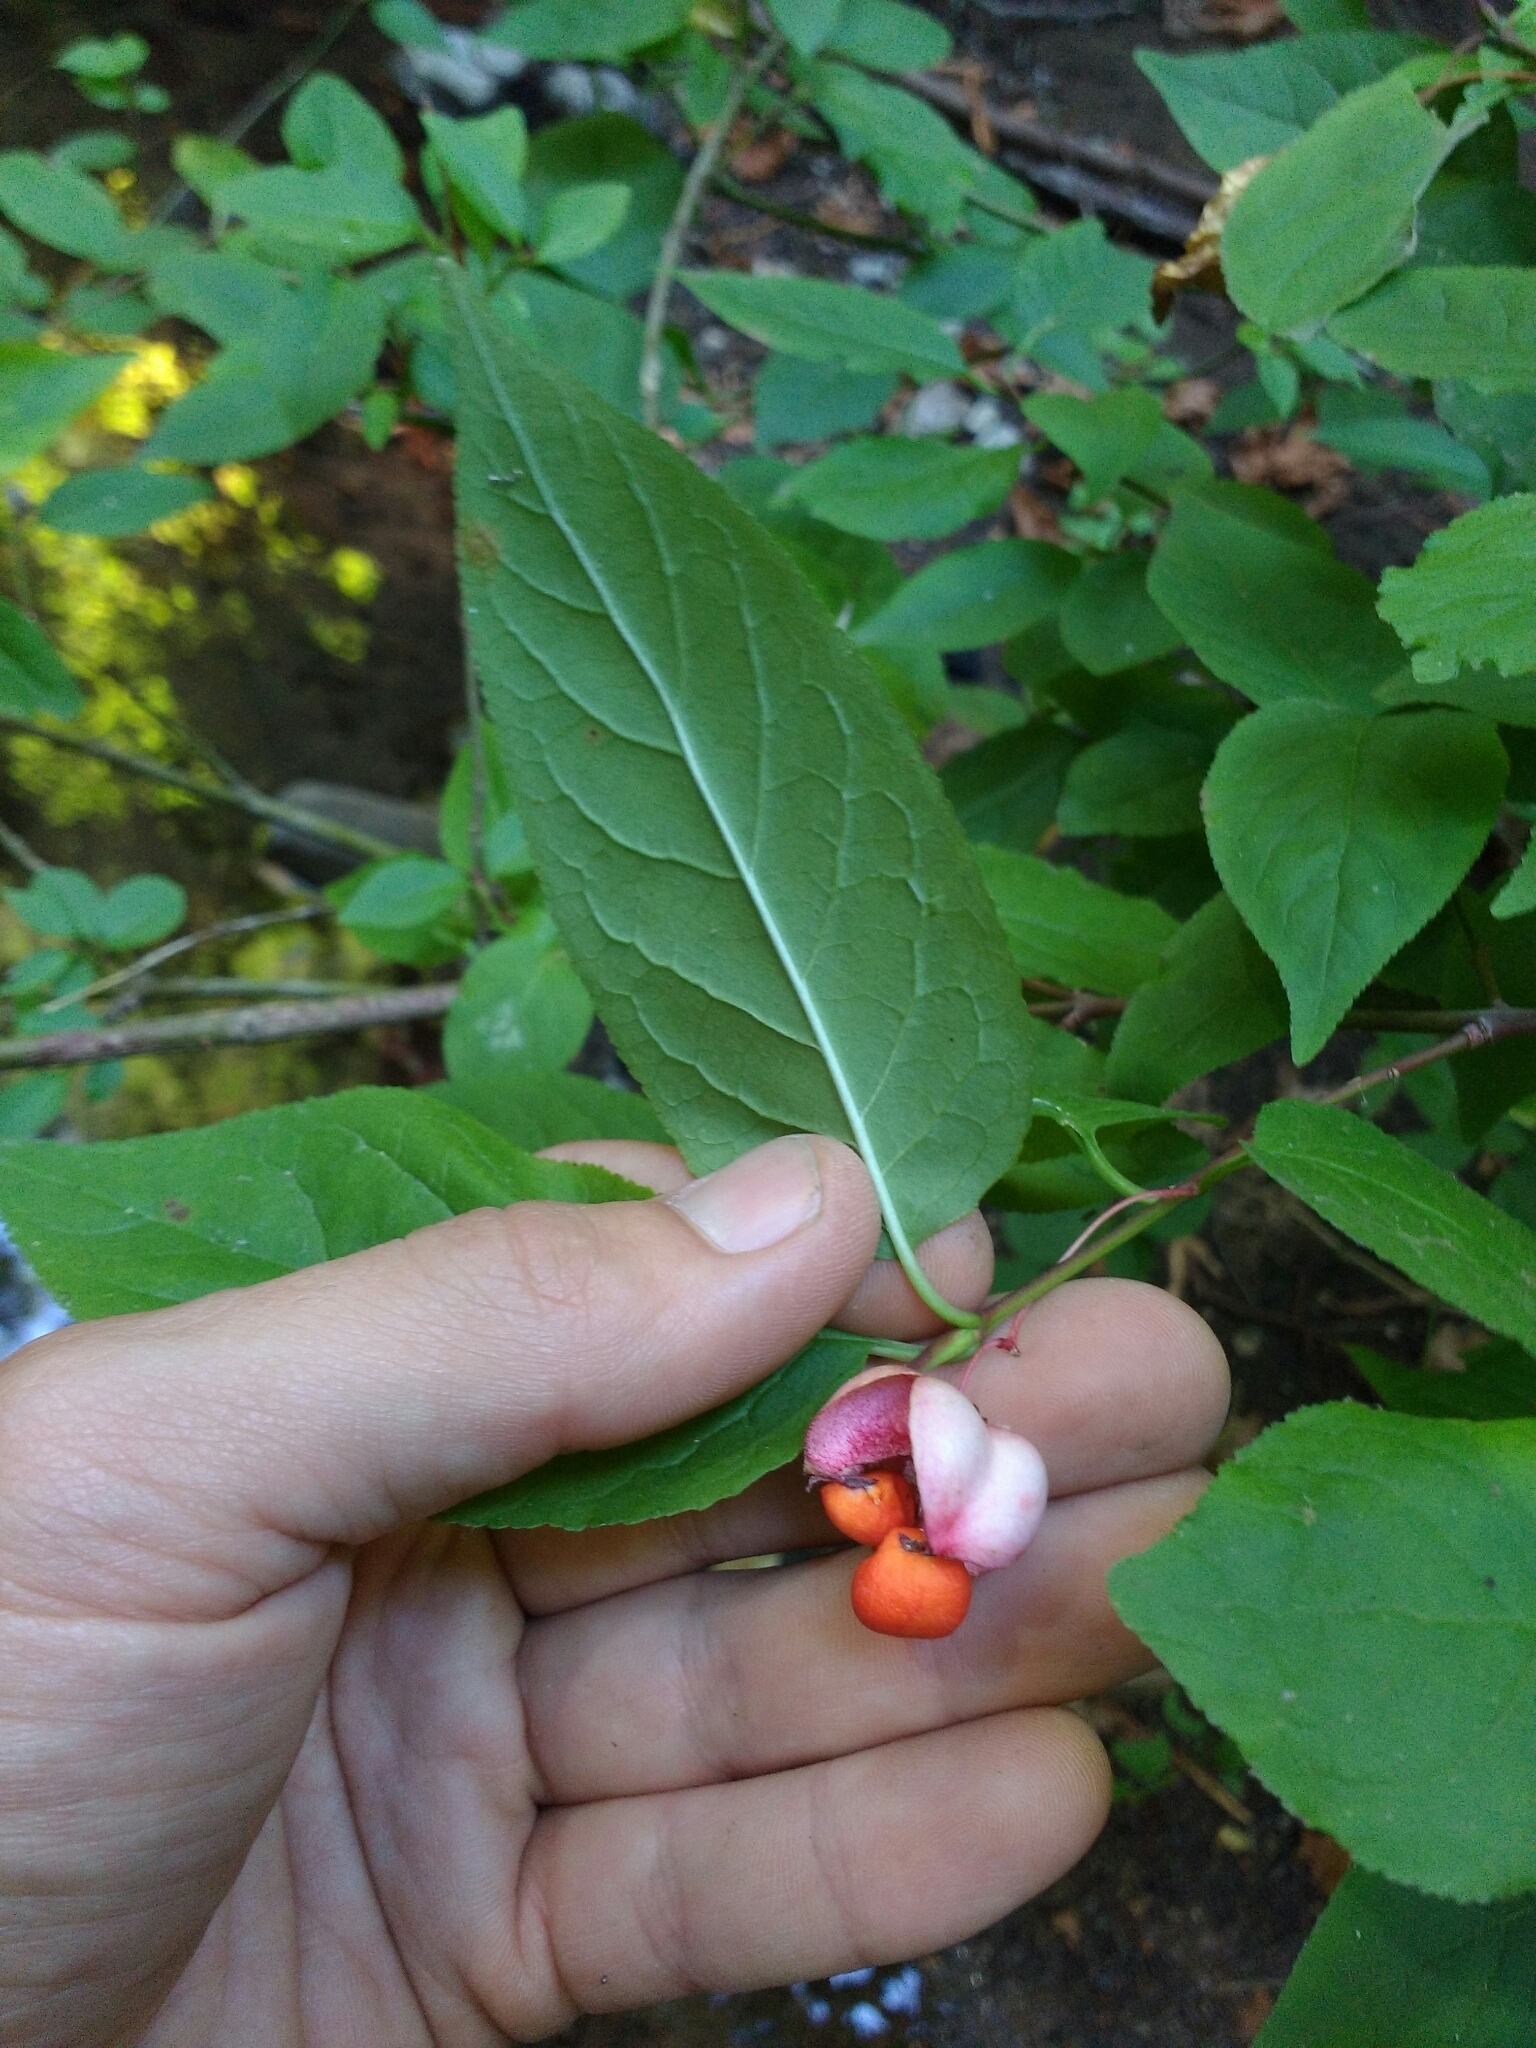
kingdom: Plantae
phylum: Tracheophyta
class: Magnoliopsida
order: Celastrales
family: Celastraceae
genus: Euonymus
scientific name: Euonymus occidentalis
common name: Western burningbush
